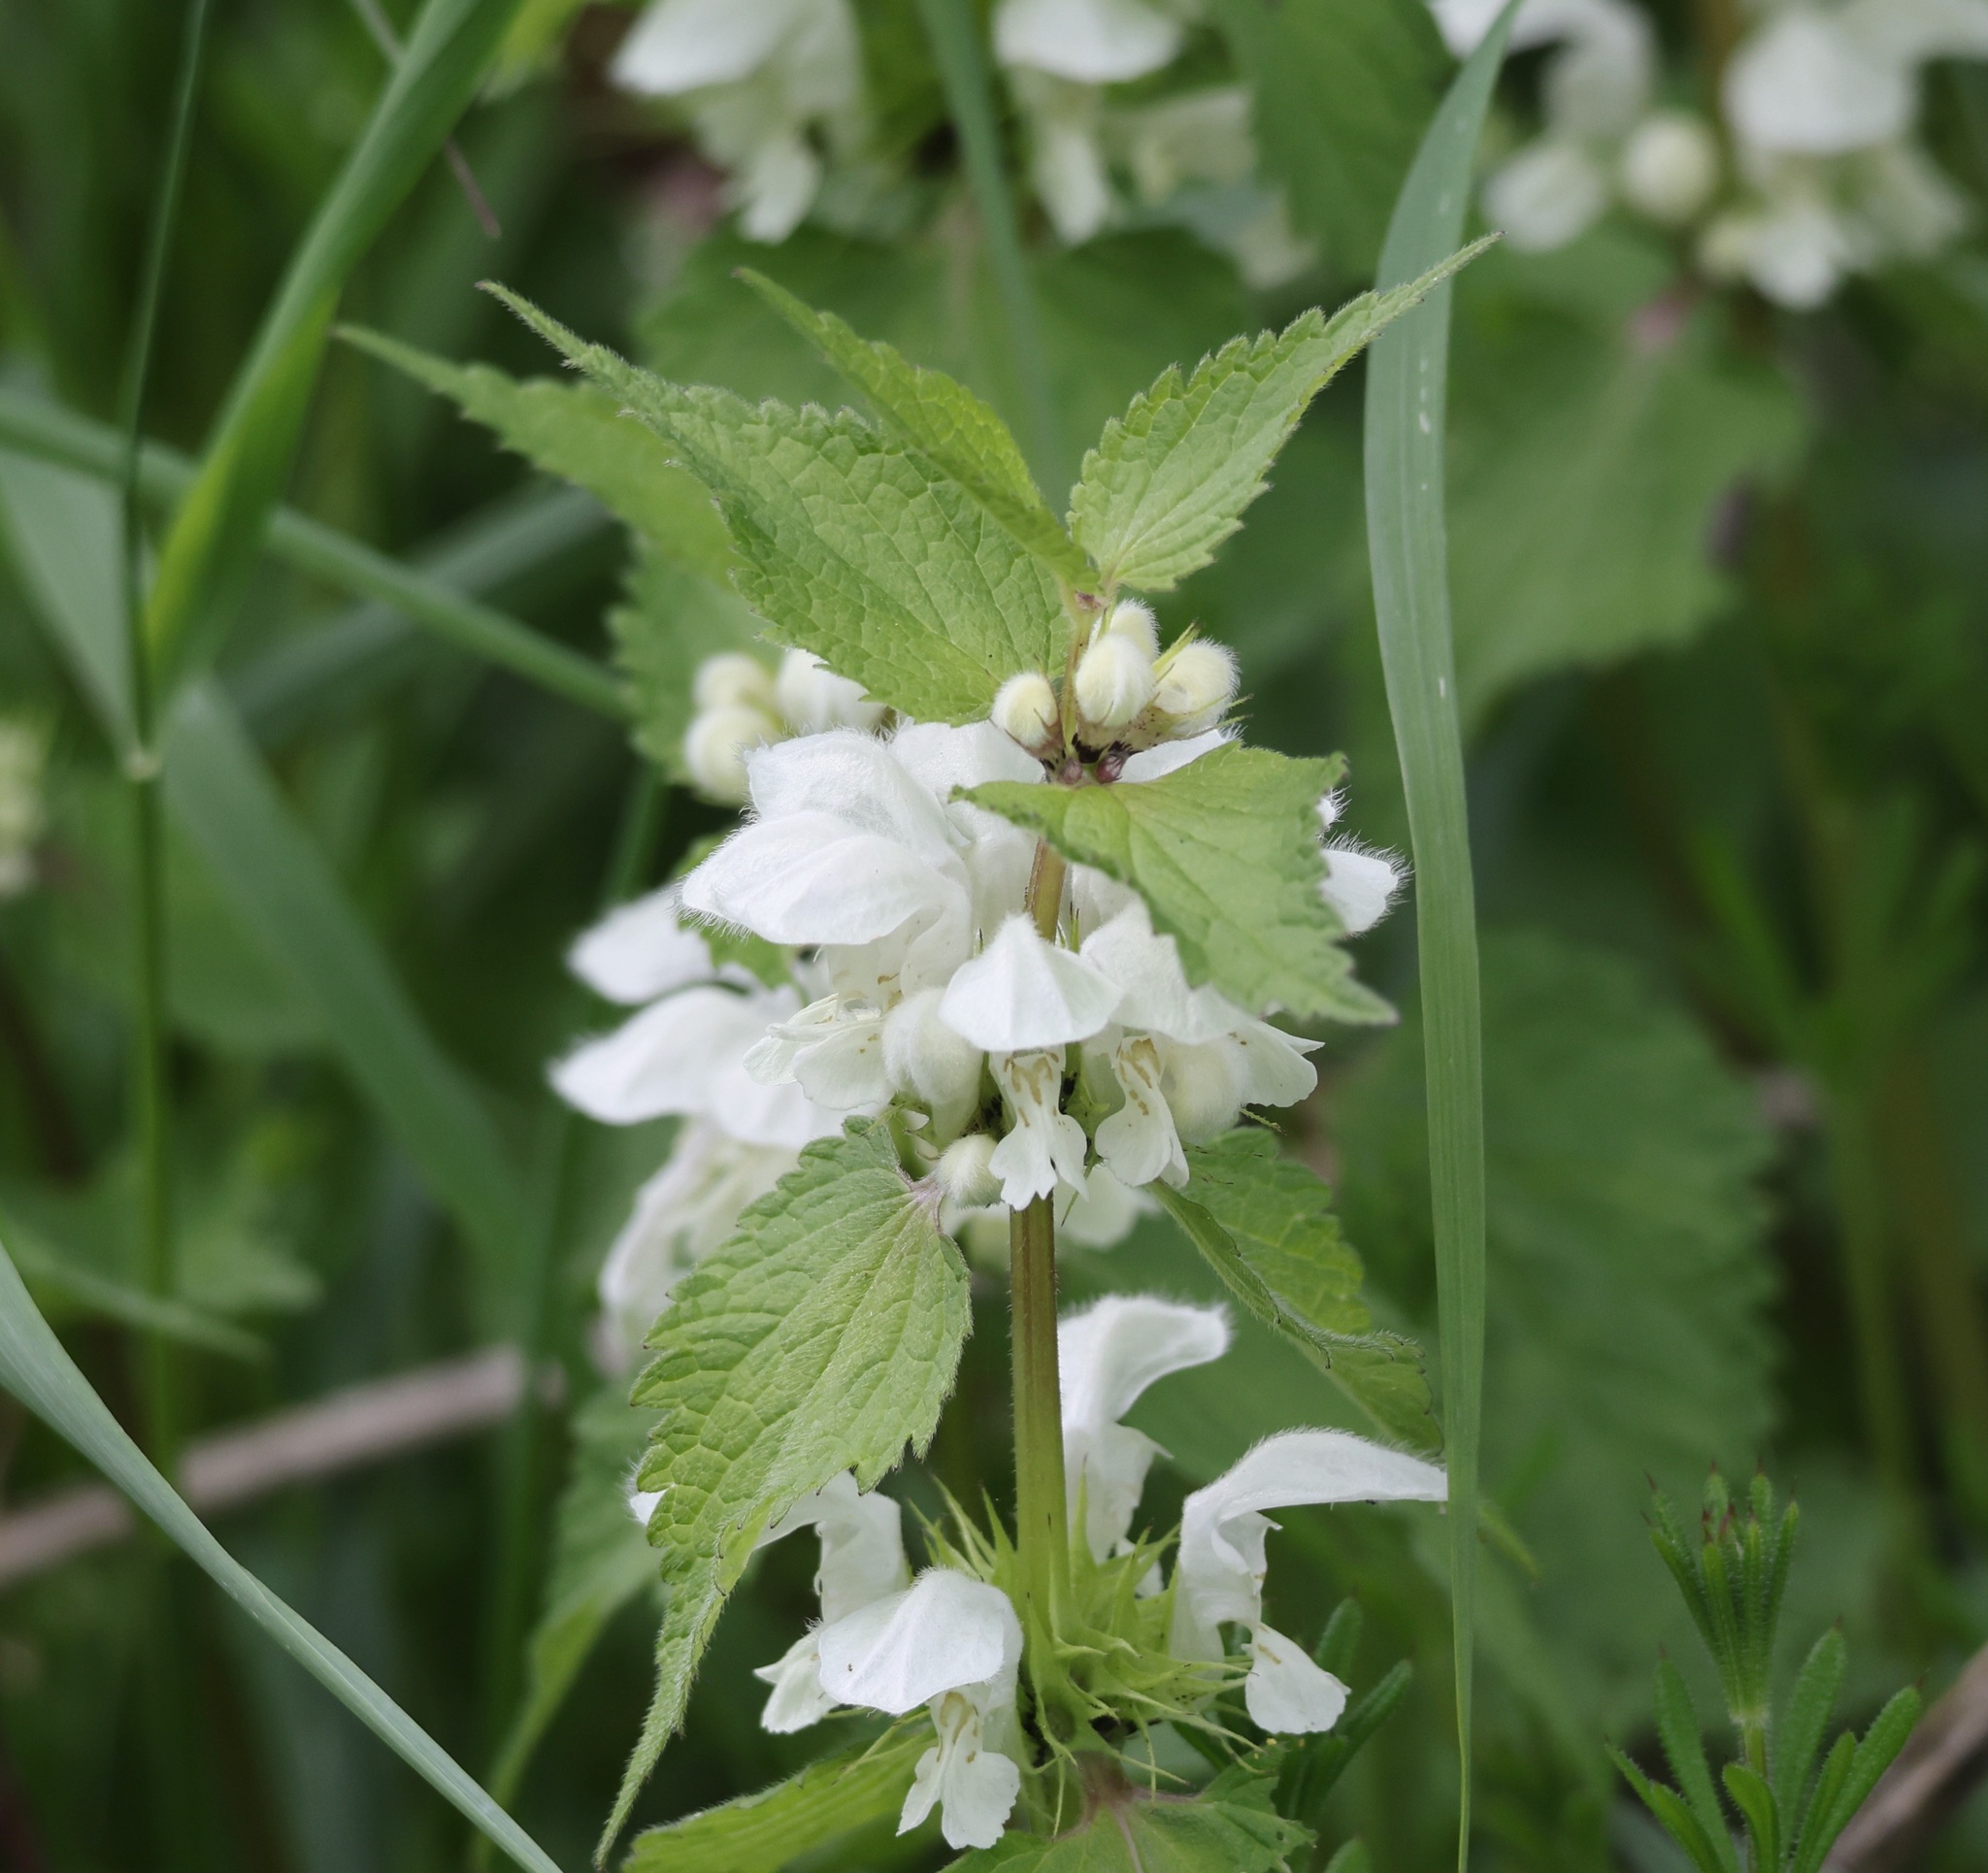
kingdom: Plantae
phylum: Tracheophyta
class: Magnoliopsida
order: Lamiales
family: Lamiaceae
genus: Lamium
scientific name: Lamium album
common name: White dead-nettle
